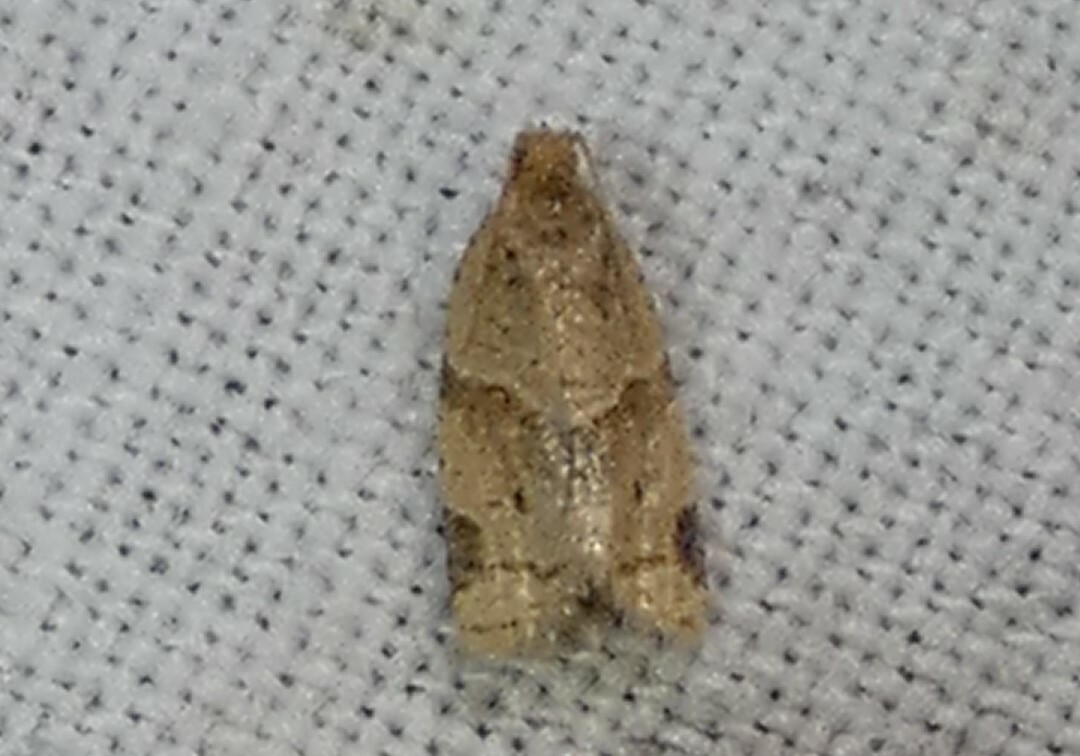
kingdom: Animalia
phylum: Arthropoda
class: Insecta
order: Lepidoptera
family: Tortricidae
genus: Clepsis
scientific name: Clepsis peritana
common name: Garden tortrix
